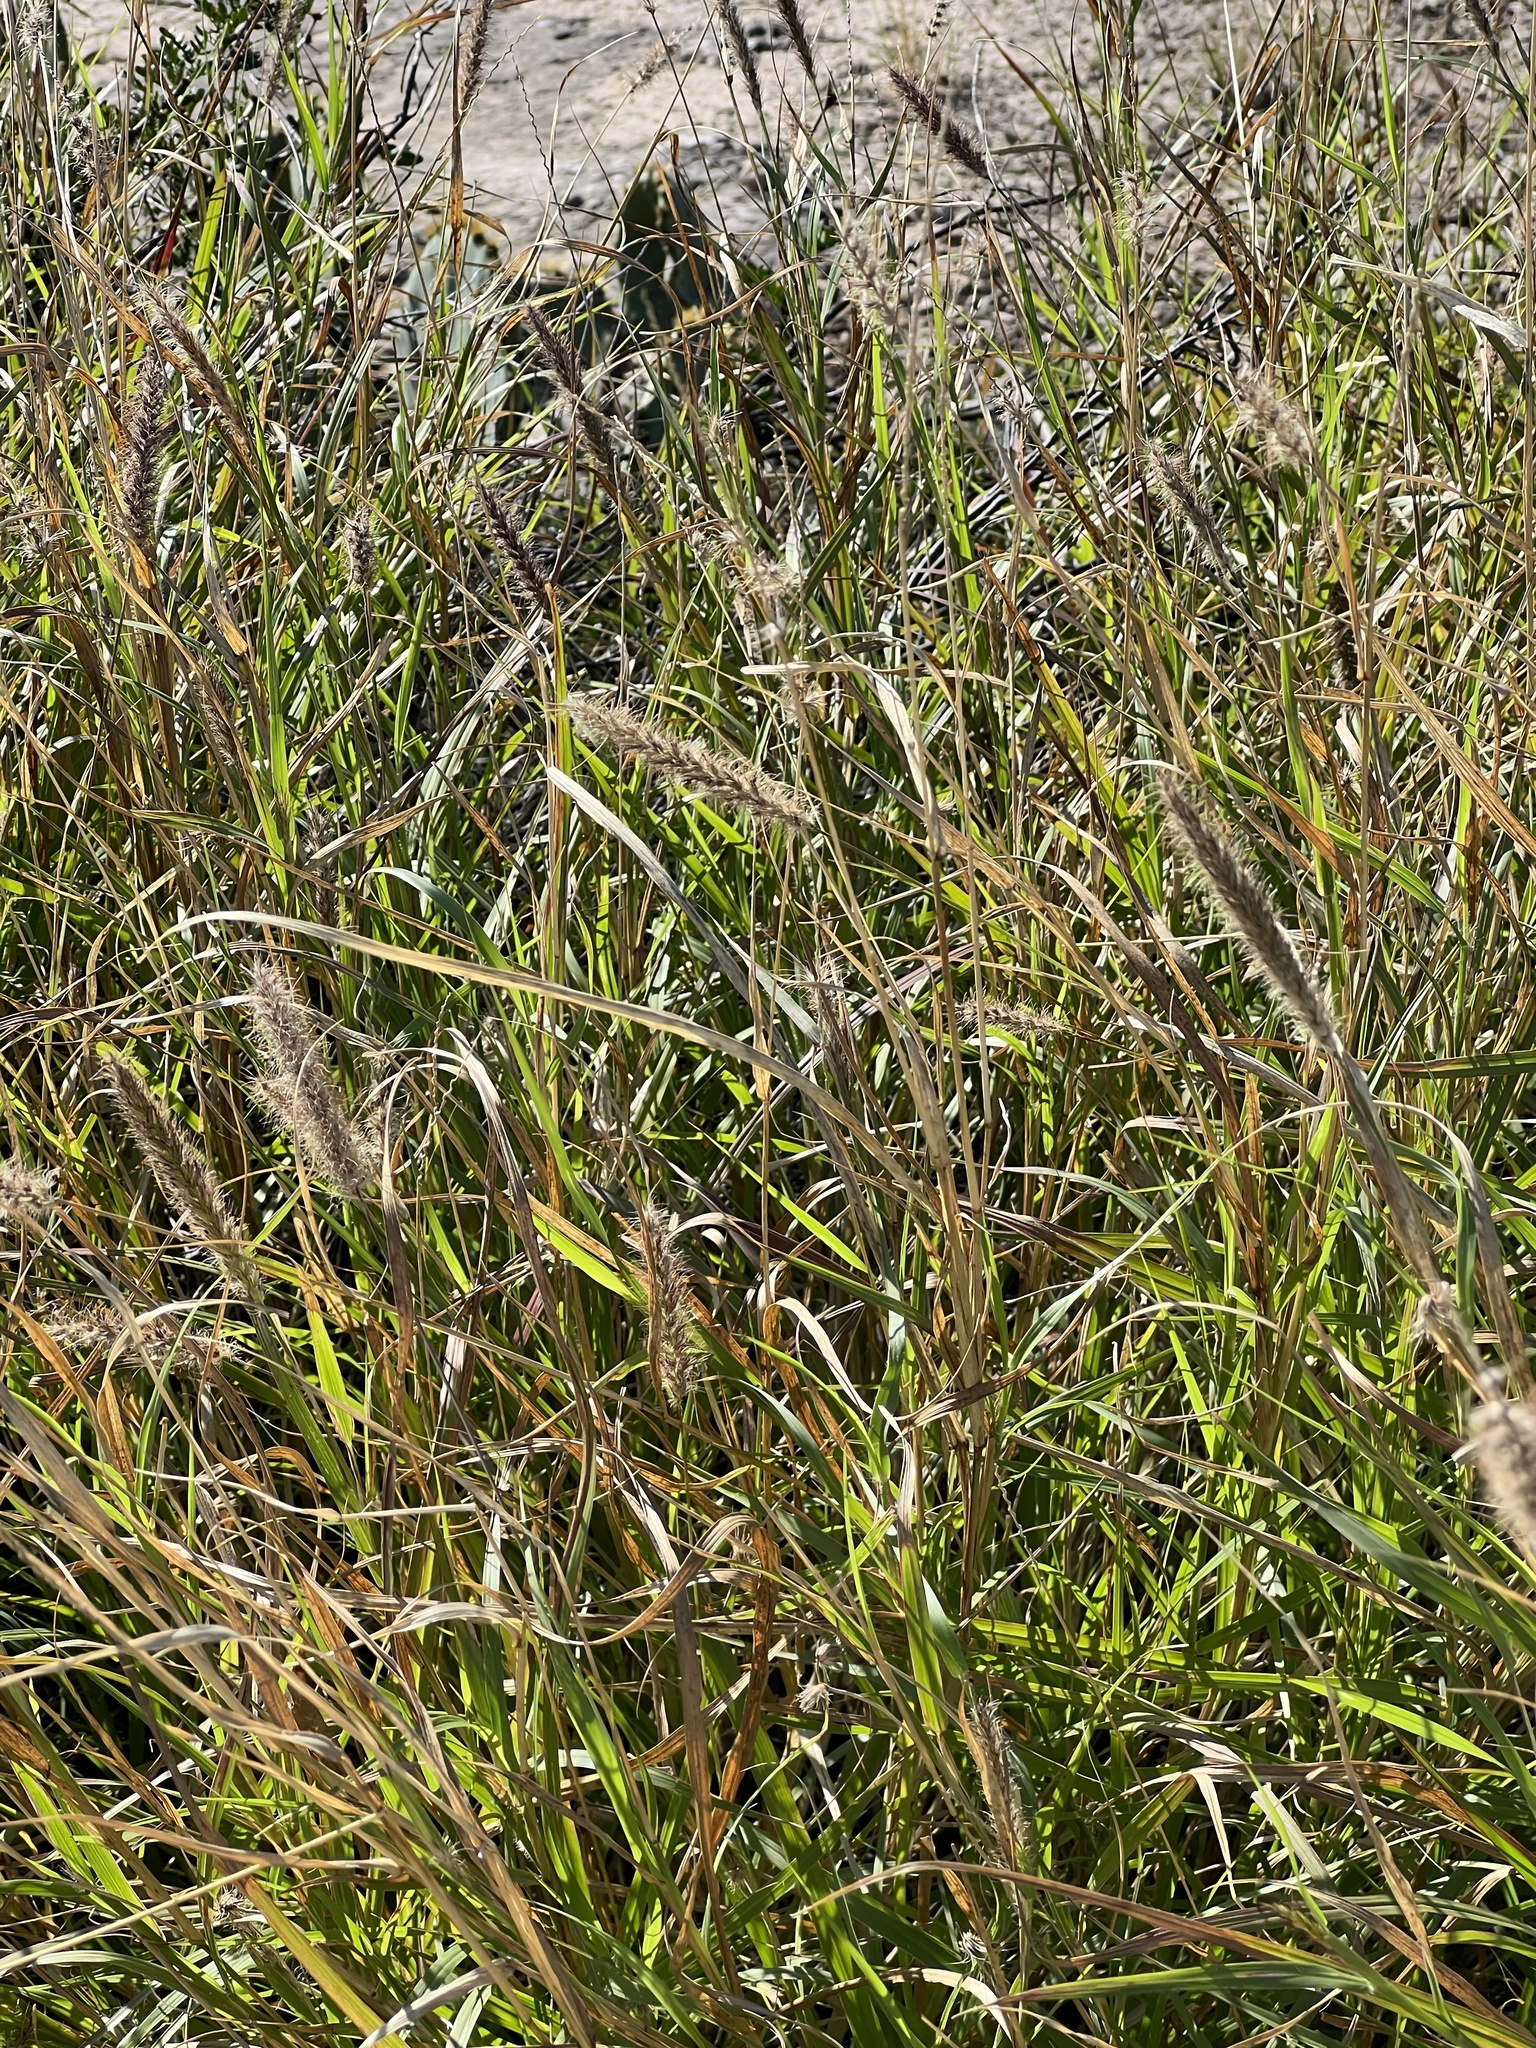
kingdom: Plantae
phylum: Tracheophyta
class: Liliopsida
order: Poales
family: Poaceae
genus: Cenchrus
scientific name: Cenchrus ciliaris
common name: Buffelgrass
